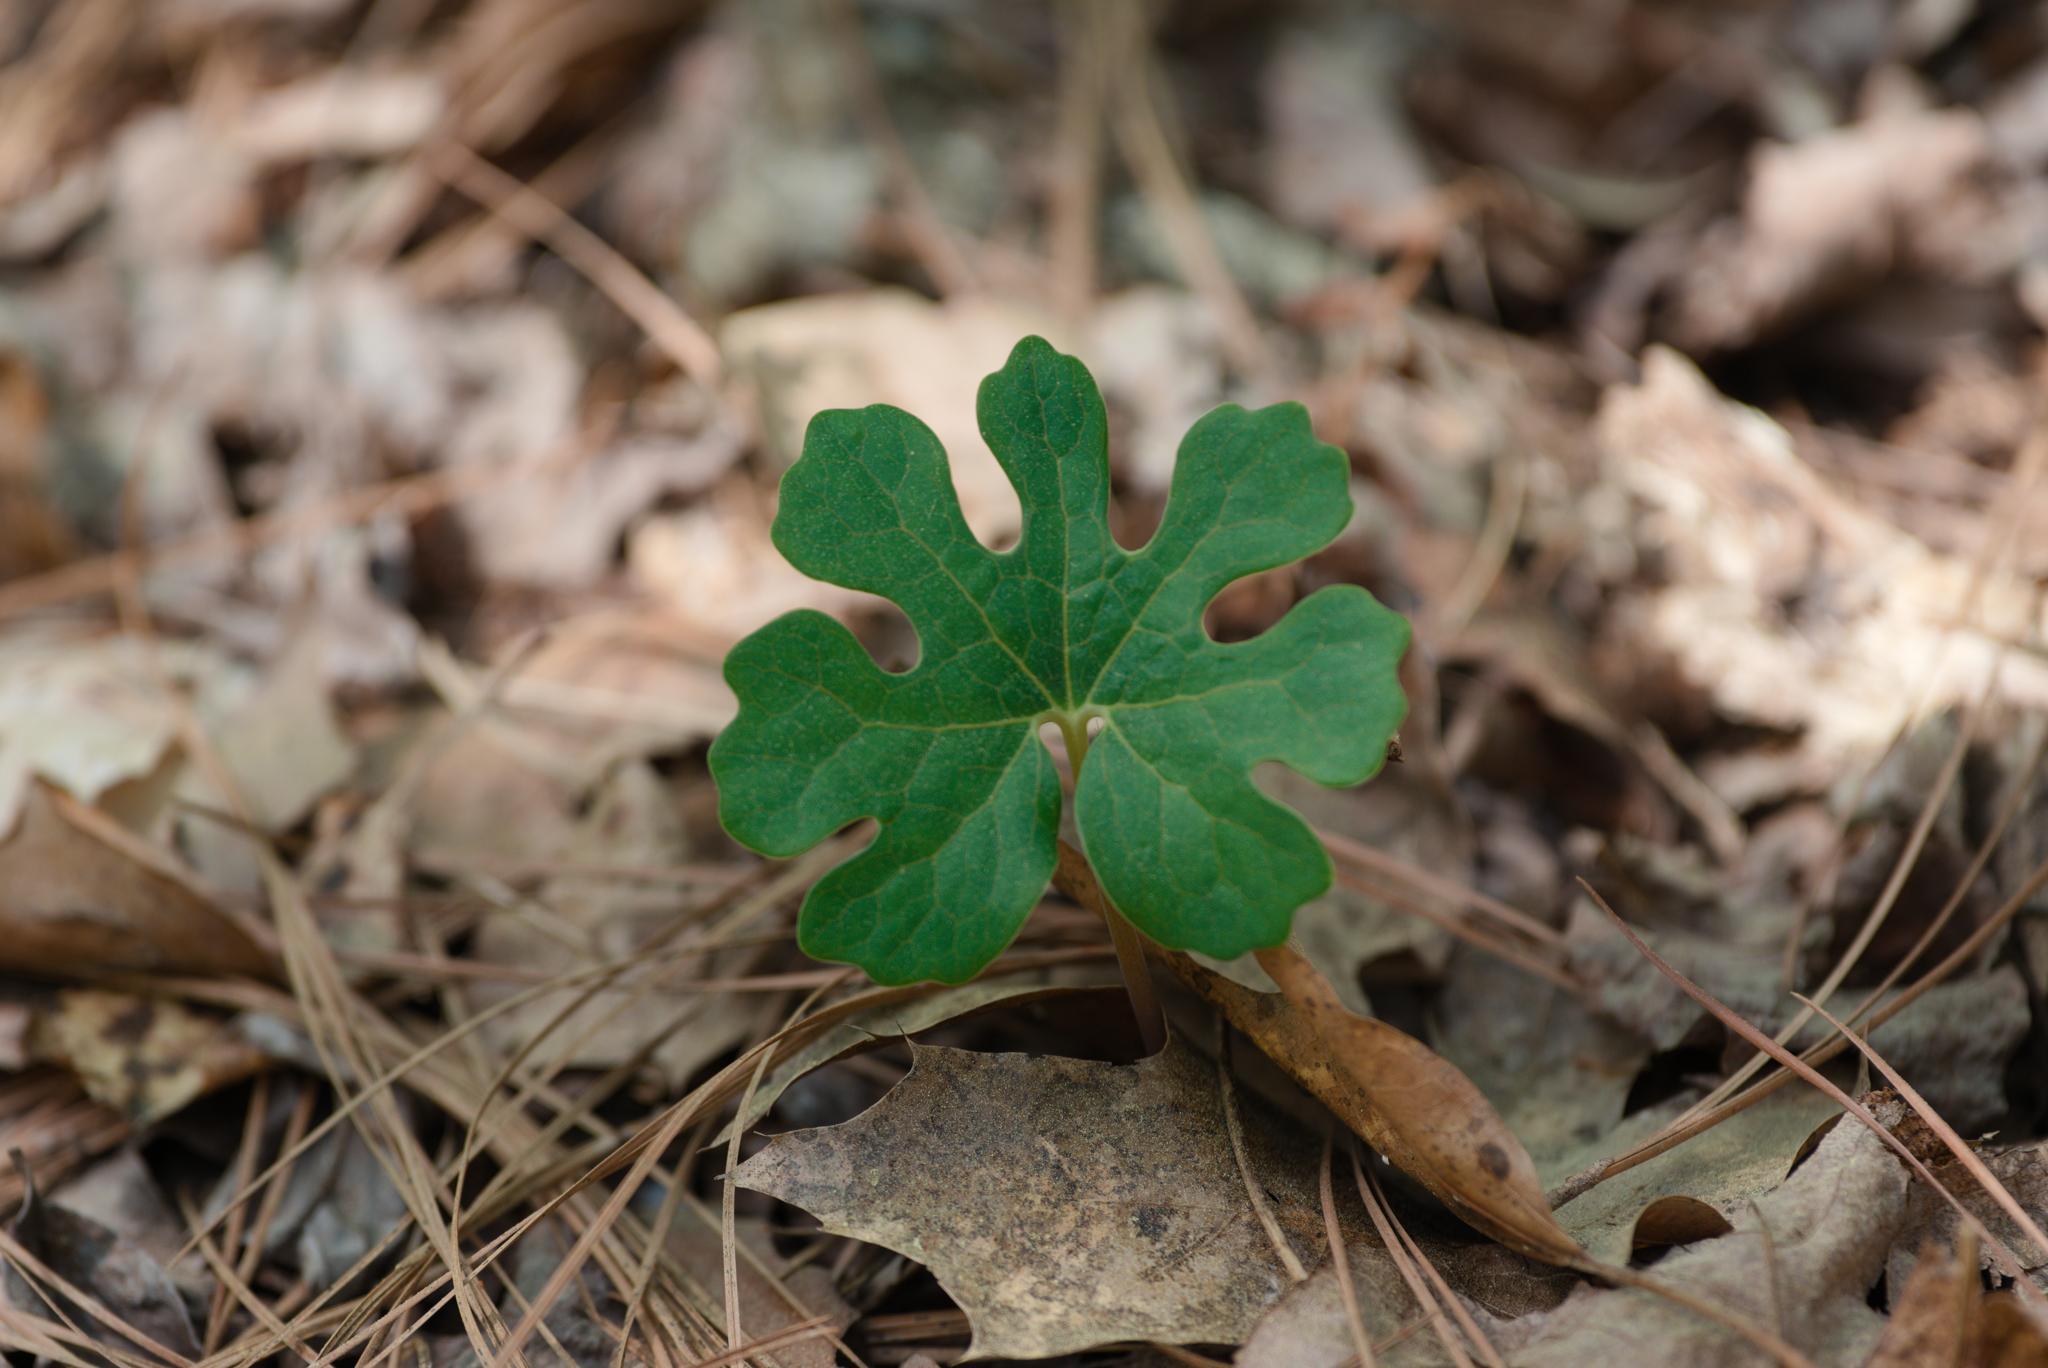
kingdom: Plantae
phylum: Tracheophyta
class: Magnoliopsida
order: Ranunculales
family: Papaveraceae
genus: Sanguinaria
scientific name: Sanguinaria canadensis
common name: Bloodroot
